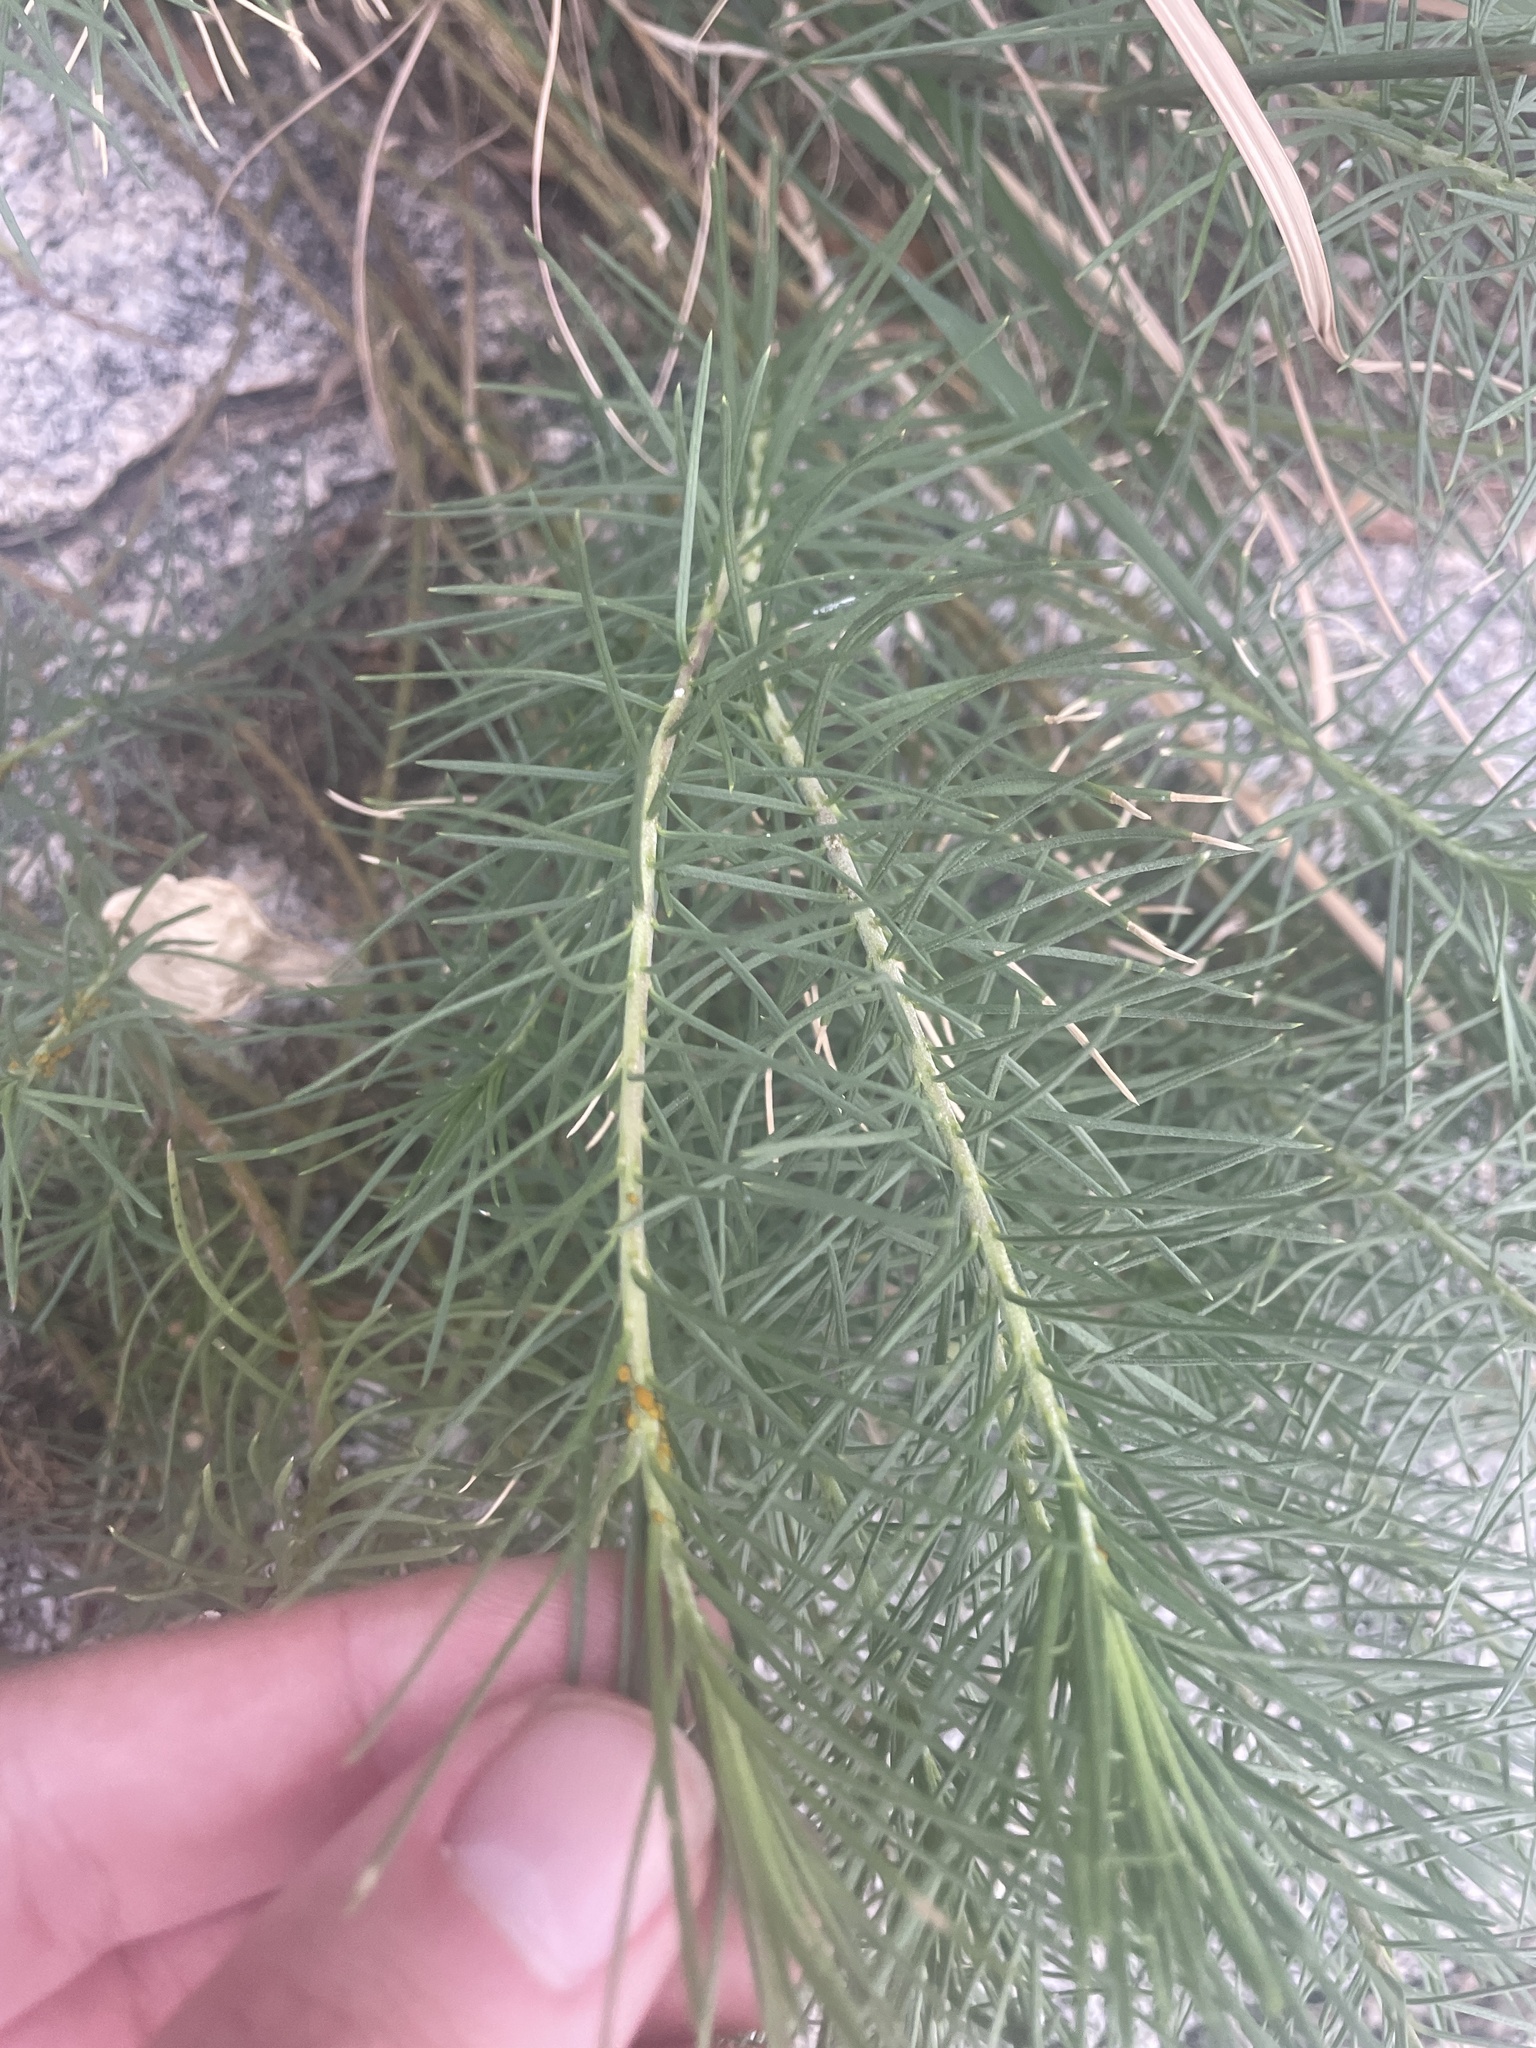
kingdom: Plantae
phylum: Tracheophyta
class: Magnoliopsida
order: Gentianales
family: Apocynaceae
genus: Asclepias
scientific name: Asclepias linaria
